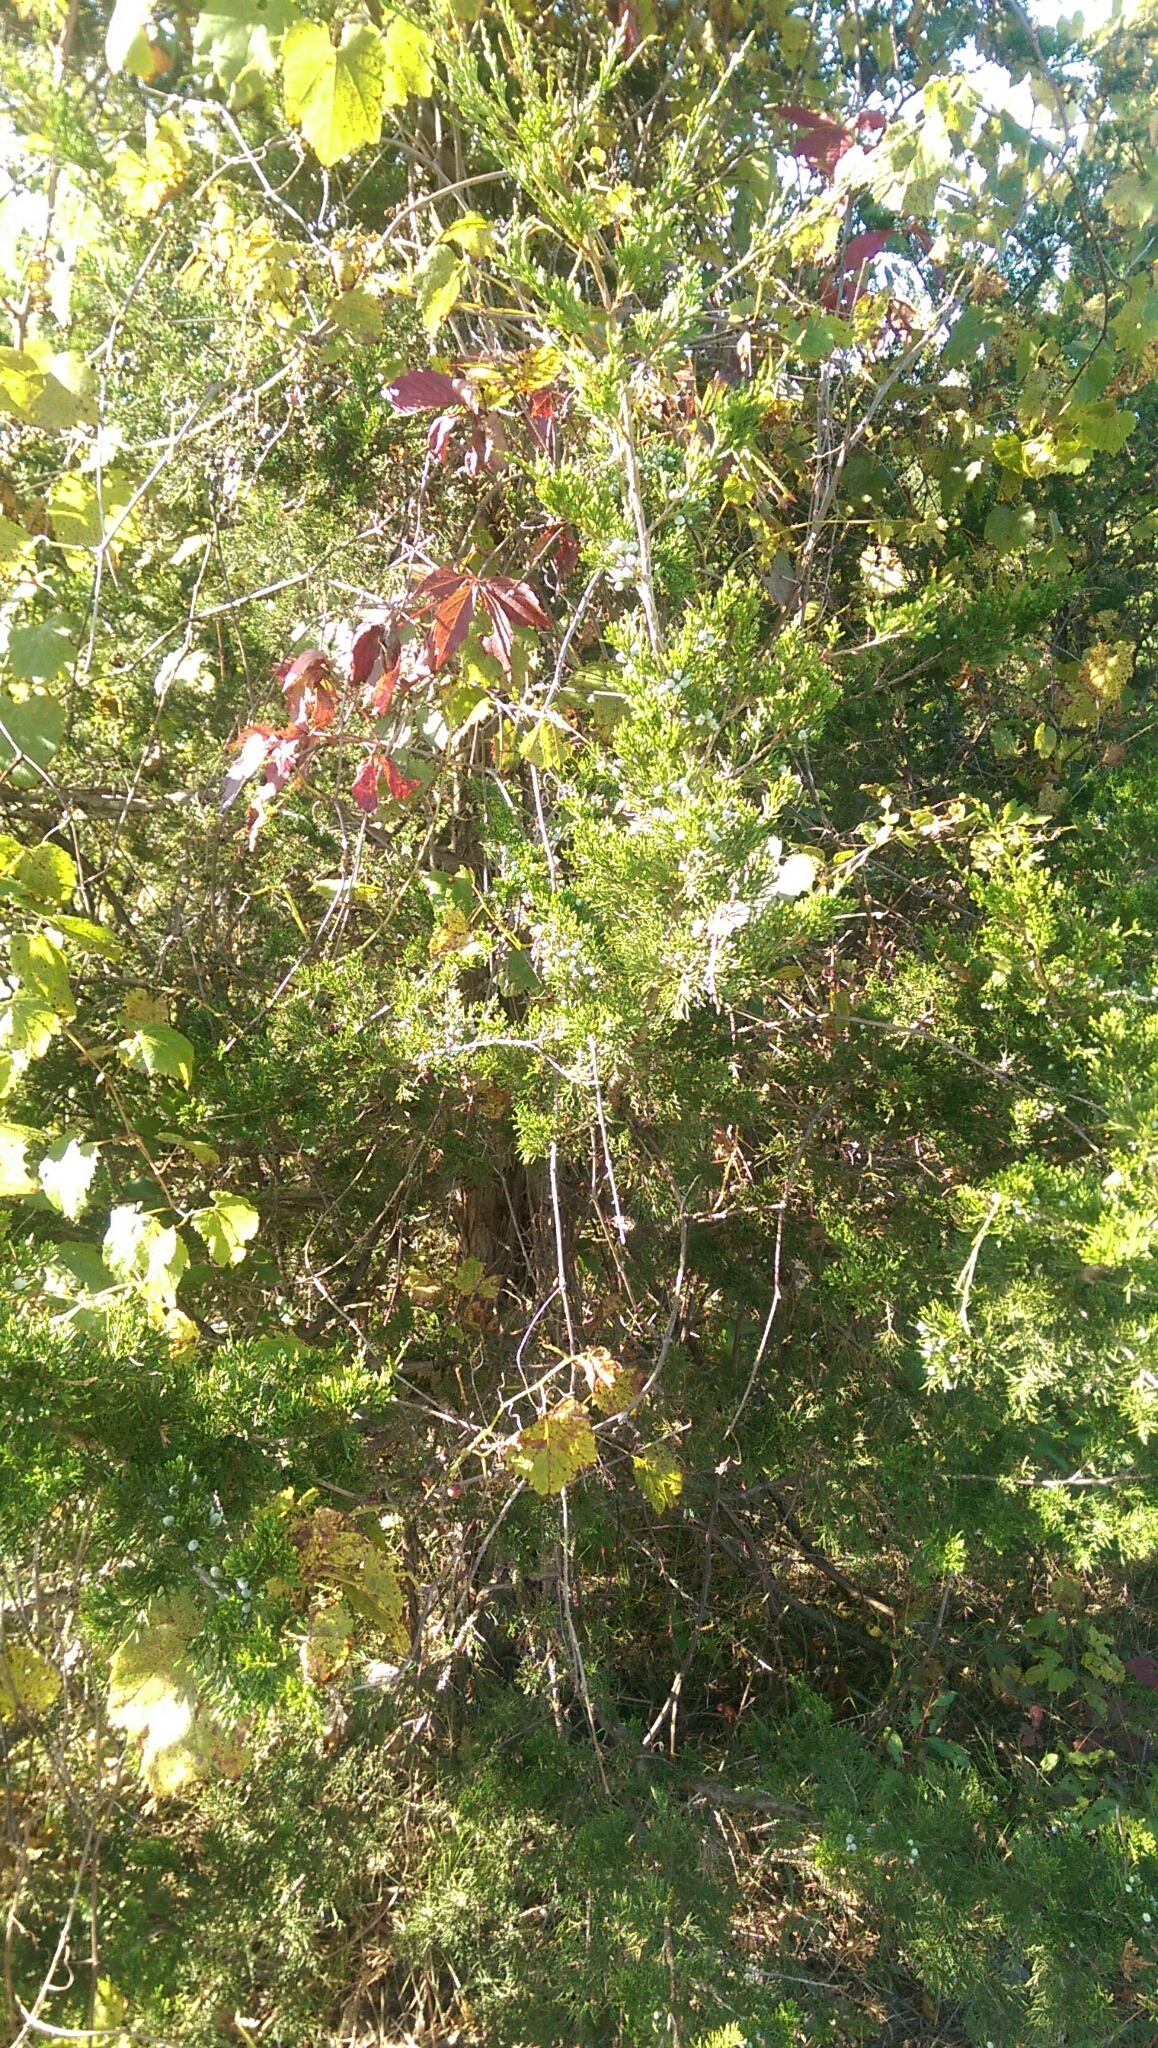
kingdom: Plantae
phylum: Tracheophyta
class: Pinopsida
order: Pinales
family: Cupressaceae
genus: Juniperus
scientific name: Juniperus virginiana
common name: Red juniper
